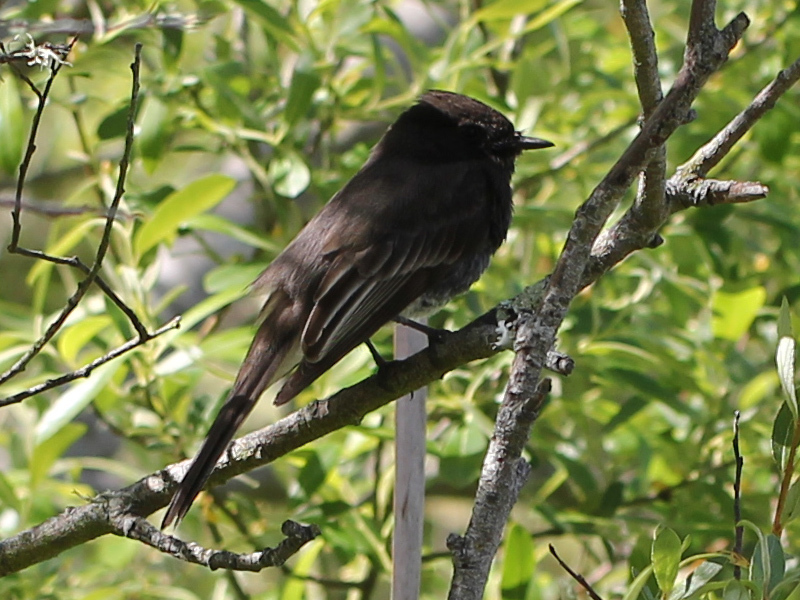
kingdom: Animalia
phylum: Chordata
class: Aves
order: Passeriformes
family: Tyrannidae
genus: Sayornis
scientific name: Sayornis nigricans
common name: Black phoebe
